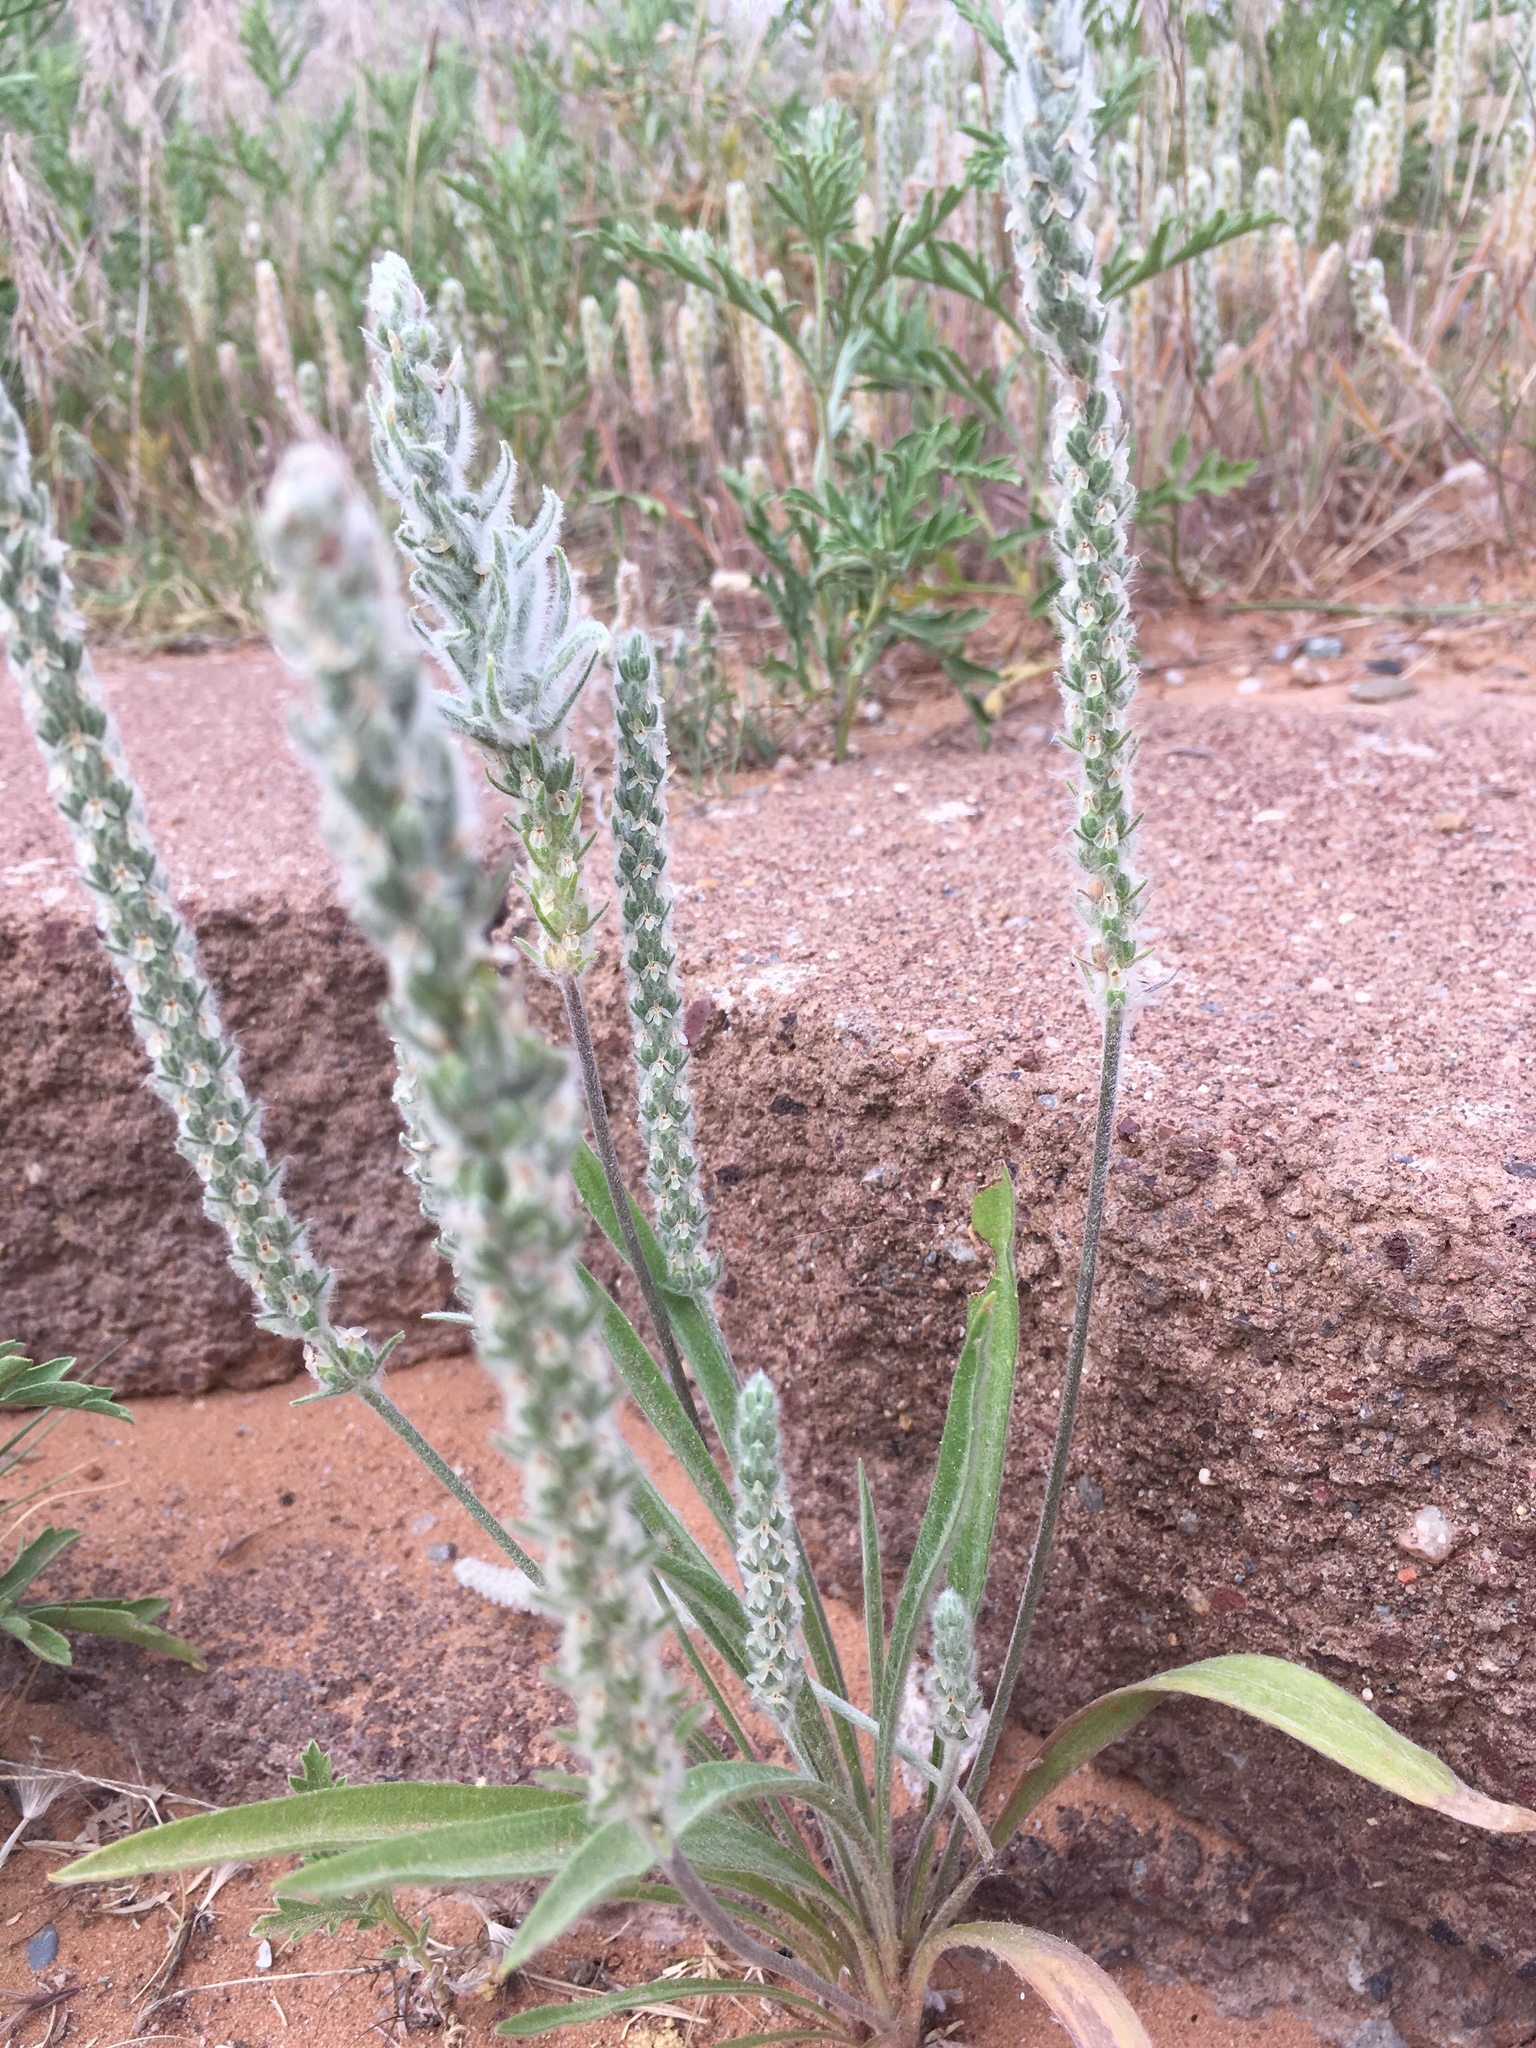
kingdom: Plantae
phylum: Tracheophyta
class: Magnoliopsida
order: Lamiales
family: Plantaginaceae
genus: Plantago
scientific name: Plantago patagonica
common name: Patagonia indian-wheat
